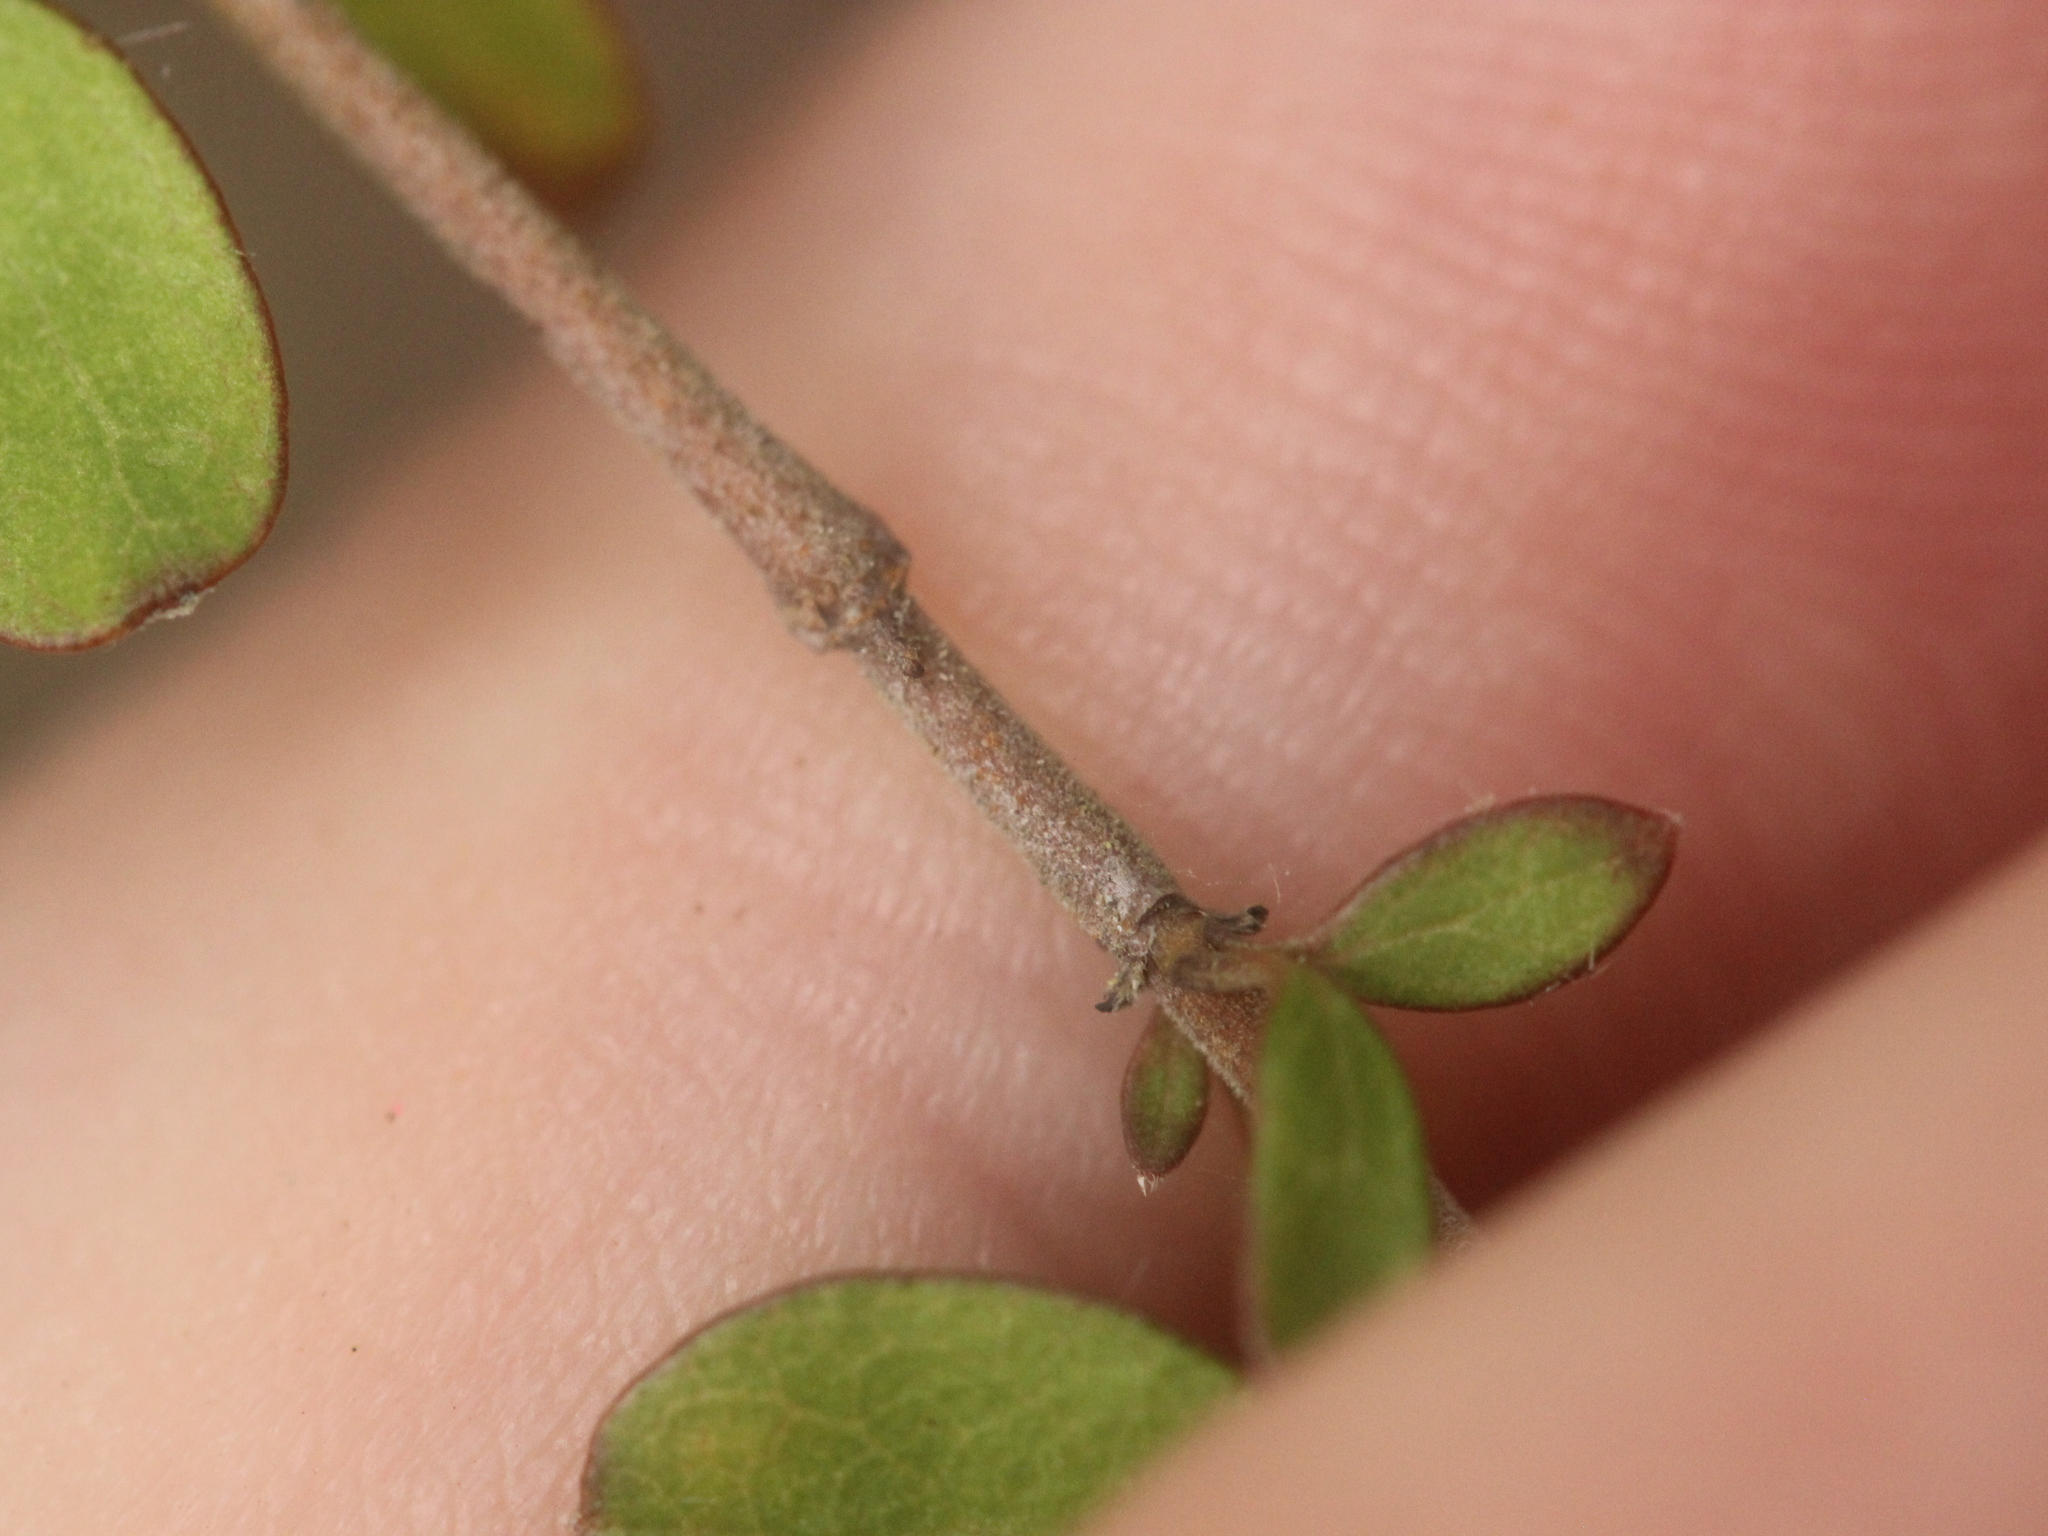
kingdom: Plantae
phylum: Tracheophyta
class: Magnoliopsida
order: Gentianales
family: Rubiaceae
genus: Coprosma
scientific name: Coprosma rigida
